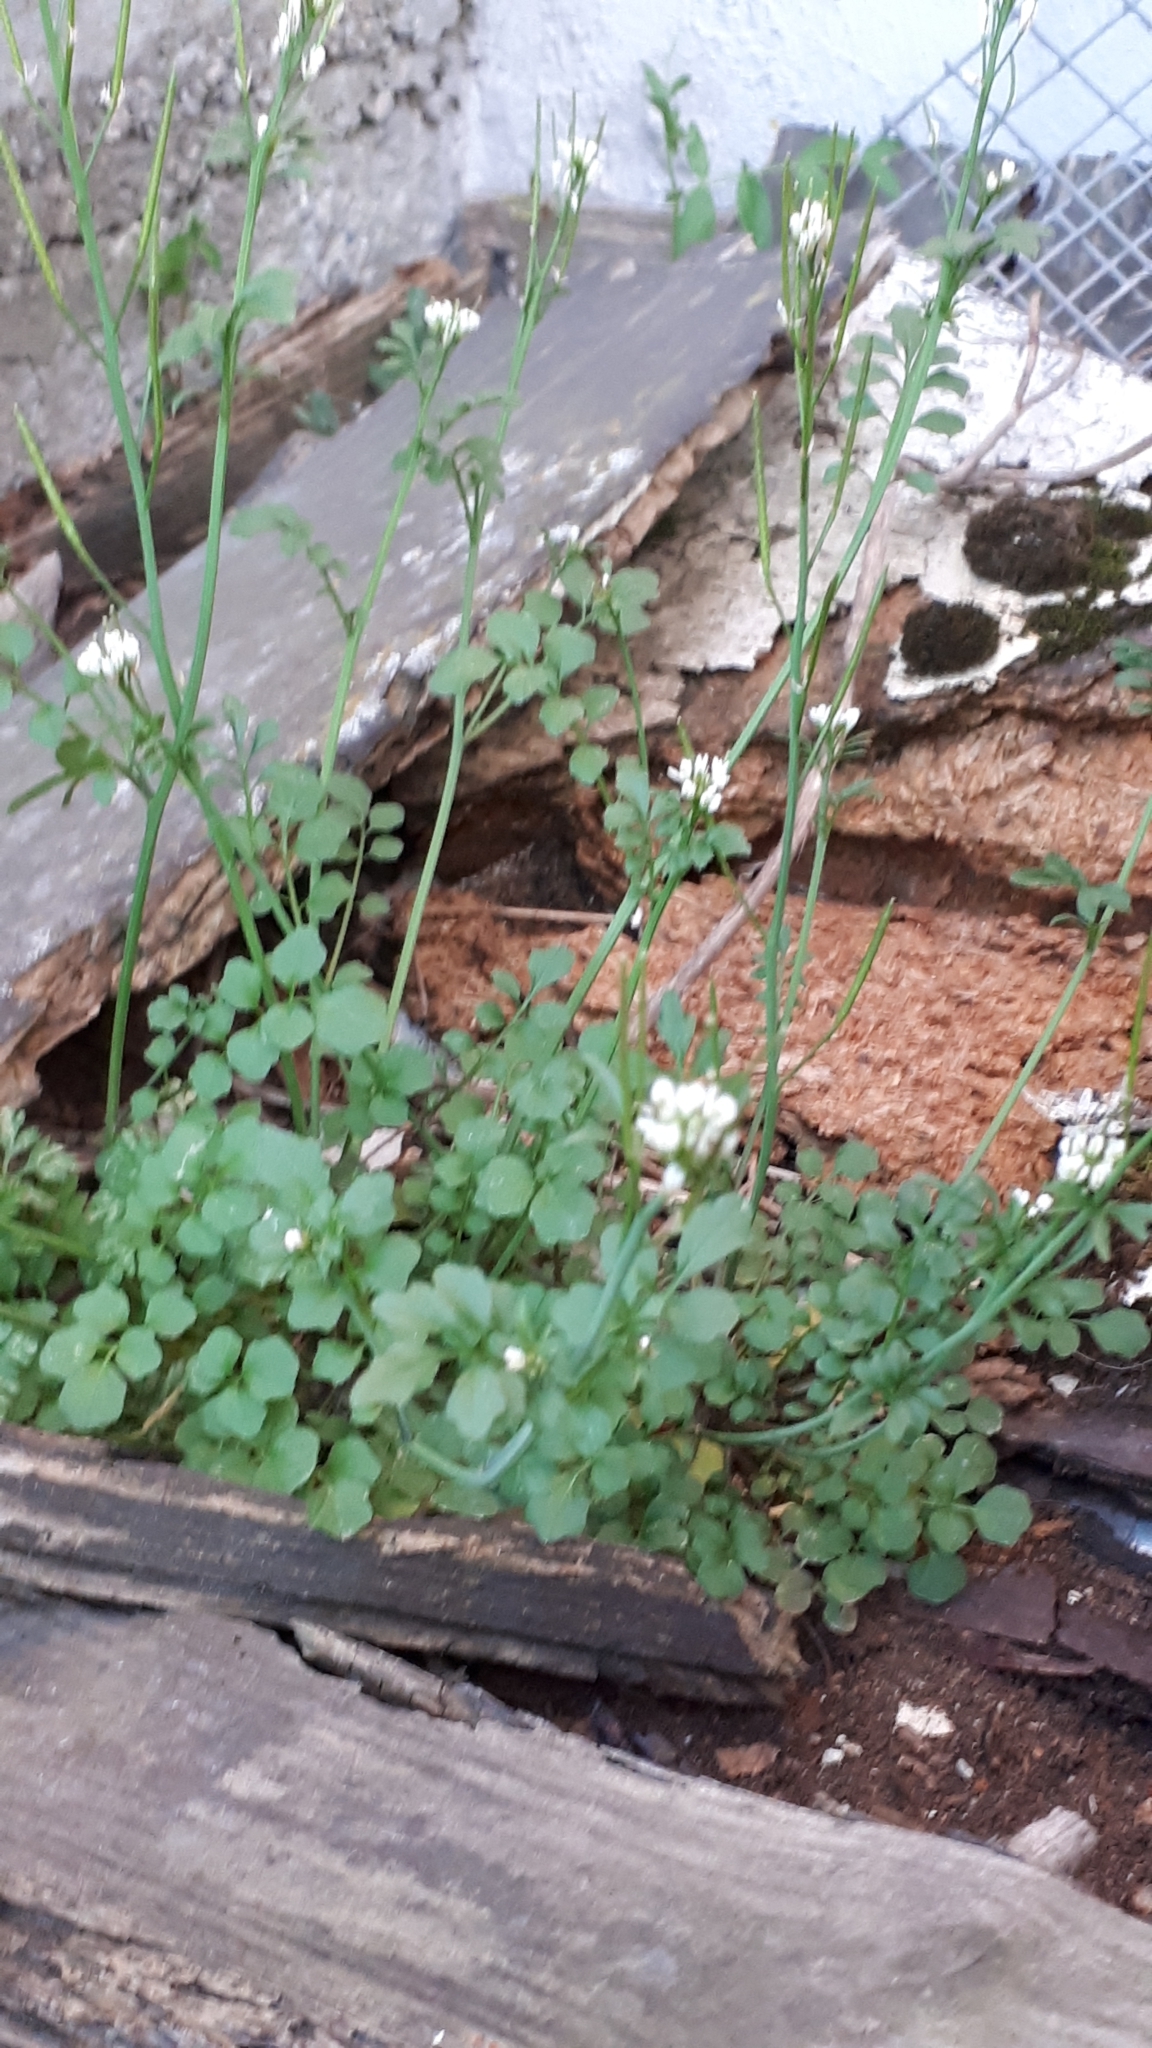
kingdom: Plantae
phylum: Tracheophyta
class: Magnoliopsida
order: Brassicales
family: Brassicaceae
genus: Cardamine
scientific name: Cardamine hirsuta
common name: Hairy bittercress
